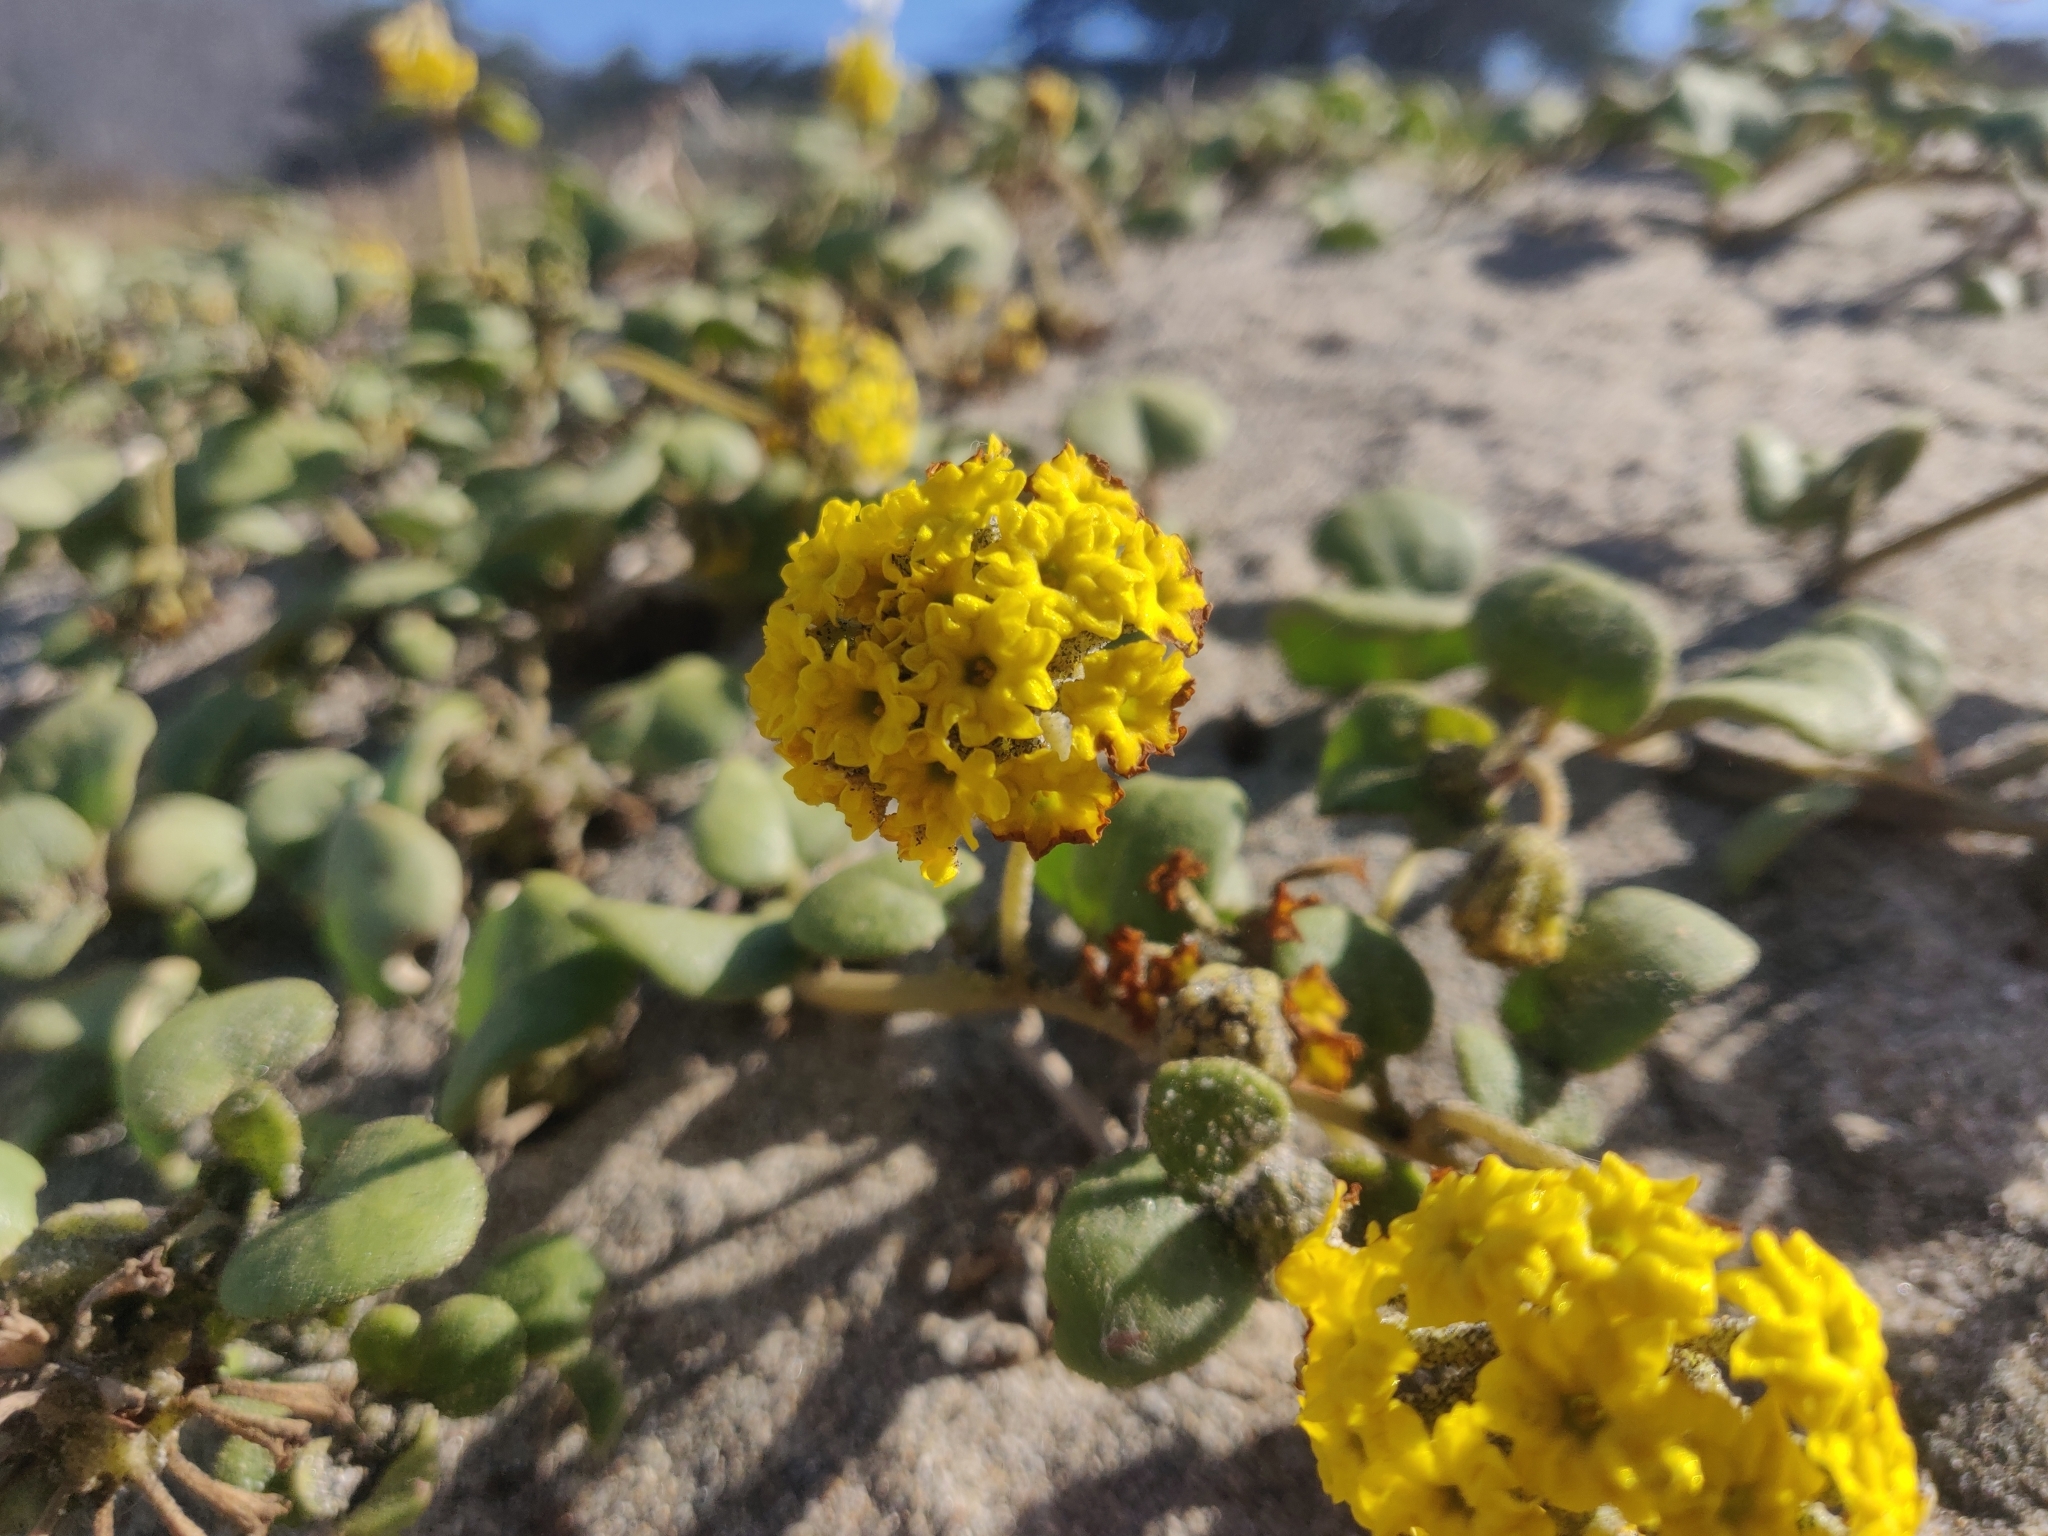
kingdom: Plantae
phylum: Tracheophyta
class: Magnoliopsida
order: Caryophyllales
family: Nyctaginaceae
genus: Abronia
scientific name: Abronia latifolia
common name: Yellow sand-verbena
